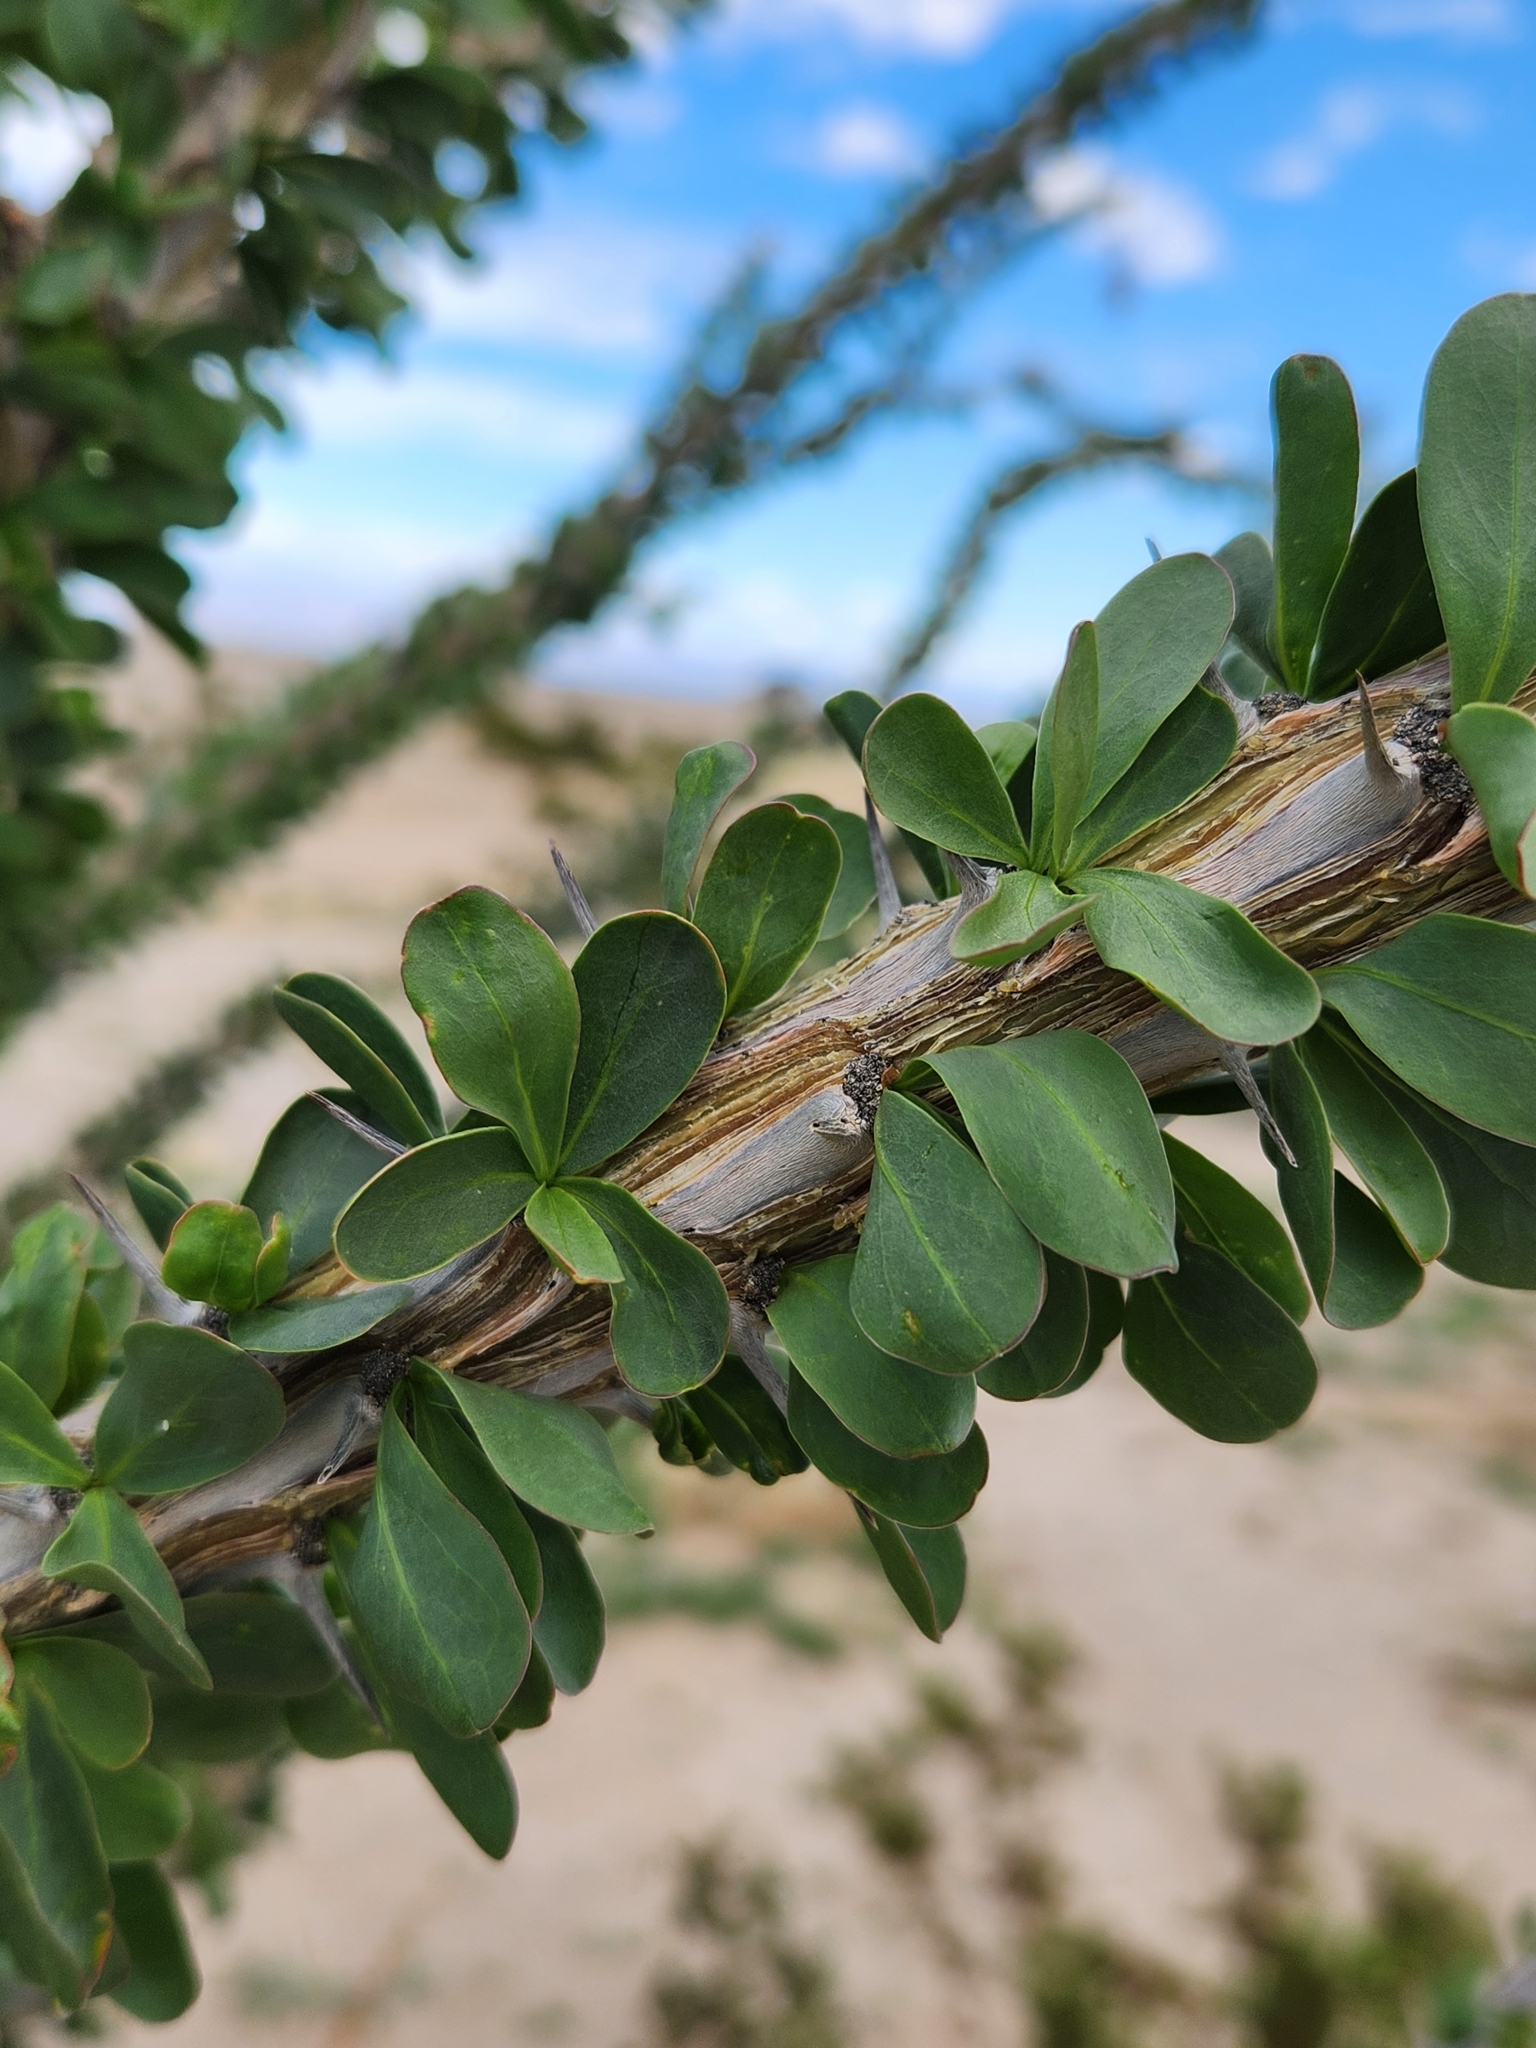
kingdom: Plantae
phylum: Tracheophyta
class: Magnoliopsida
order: Ericales
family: Fouquieriaceae
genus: Fouquieria
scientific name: Fouquieria splendens
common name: Vine-cactus
